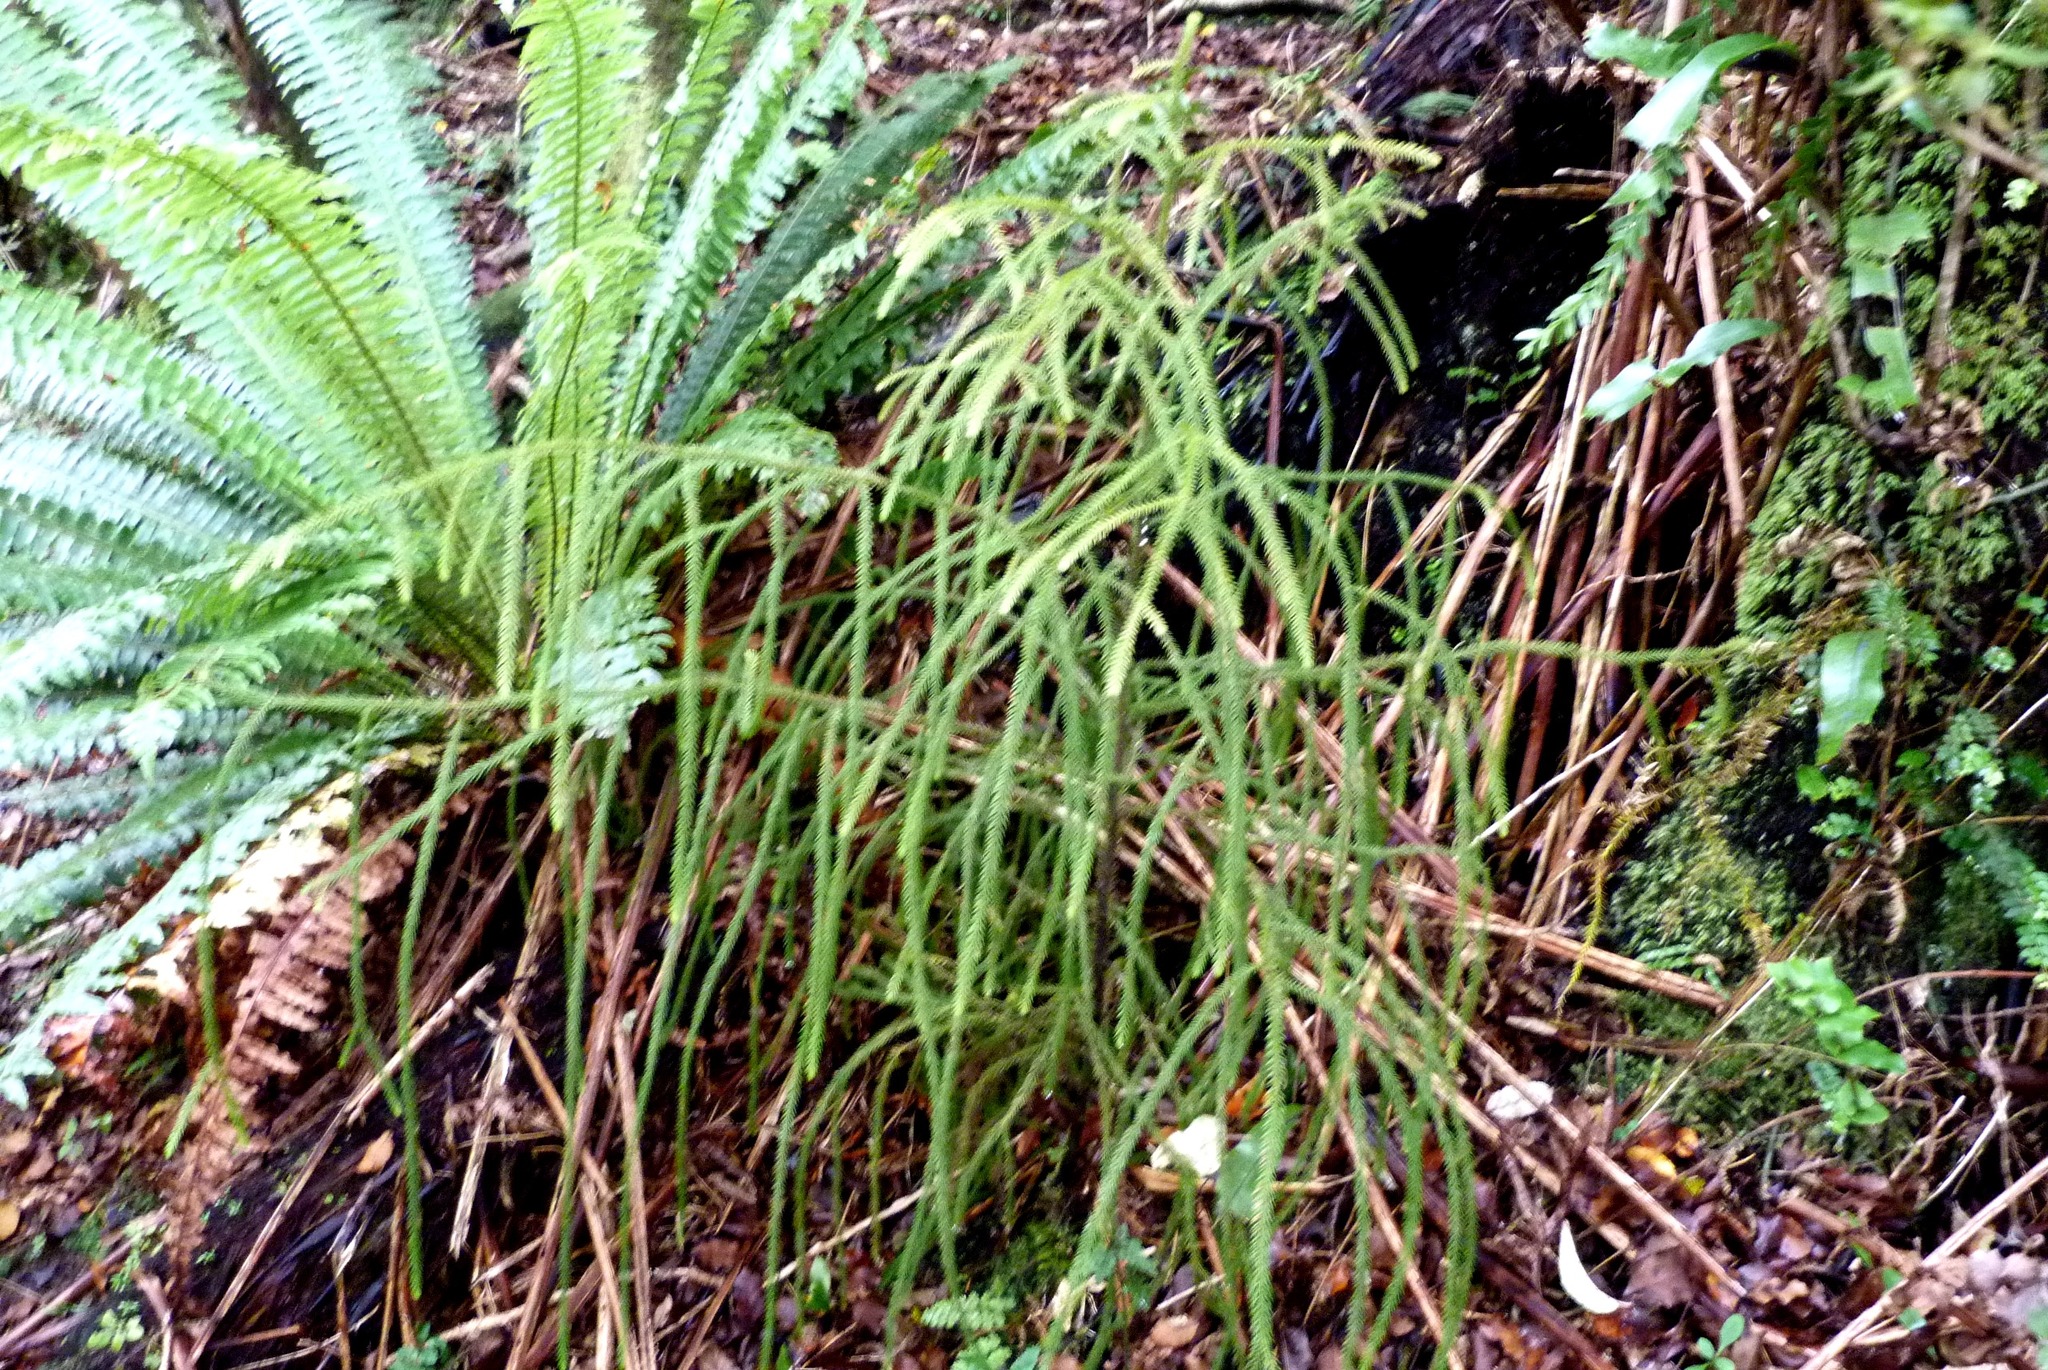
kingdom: Plantae
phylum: Tracheophyta
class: Pinopsida
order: Pinales
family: Podocarpaceae
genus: Dacrydium
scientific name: Dacrydium cupressinum
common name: Red pine
